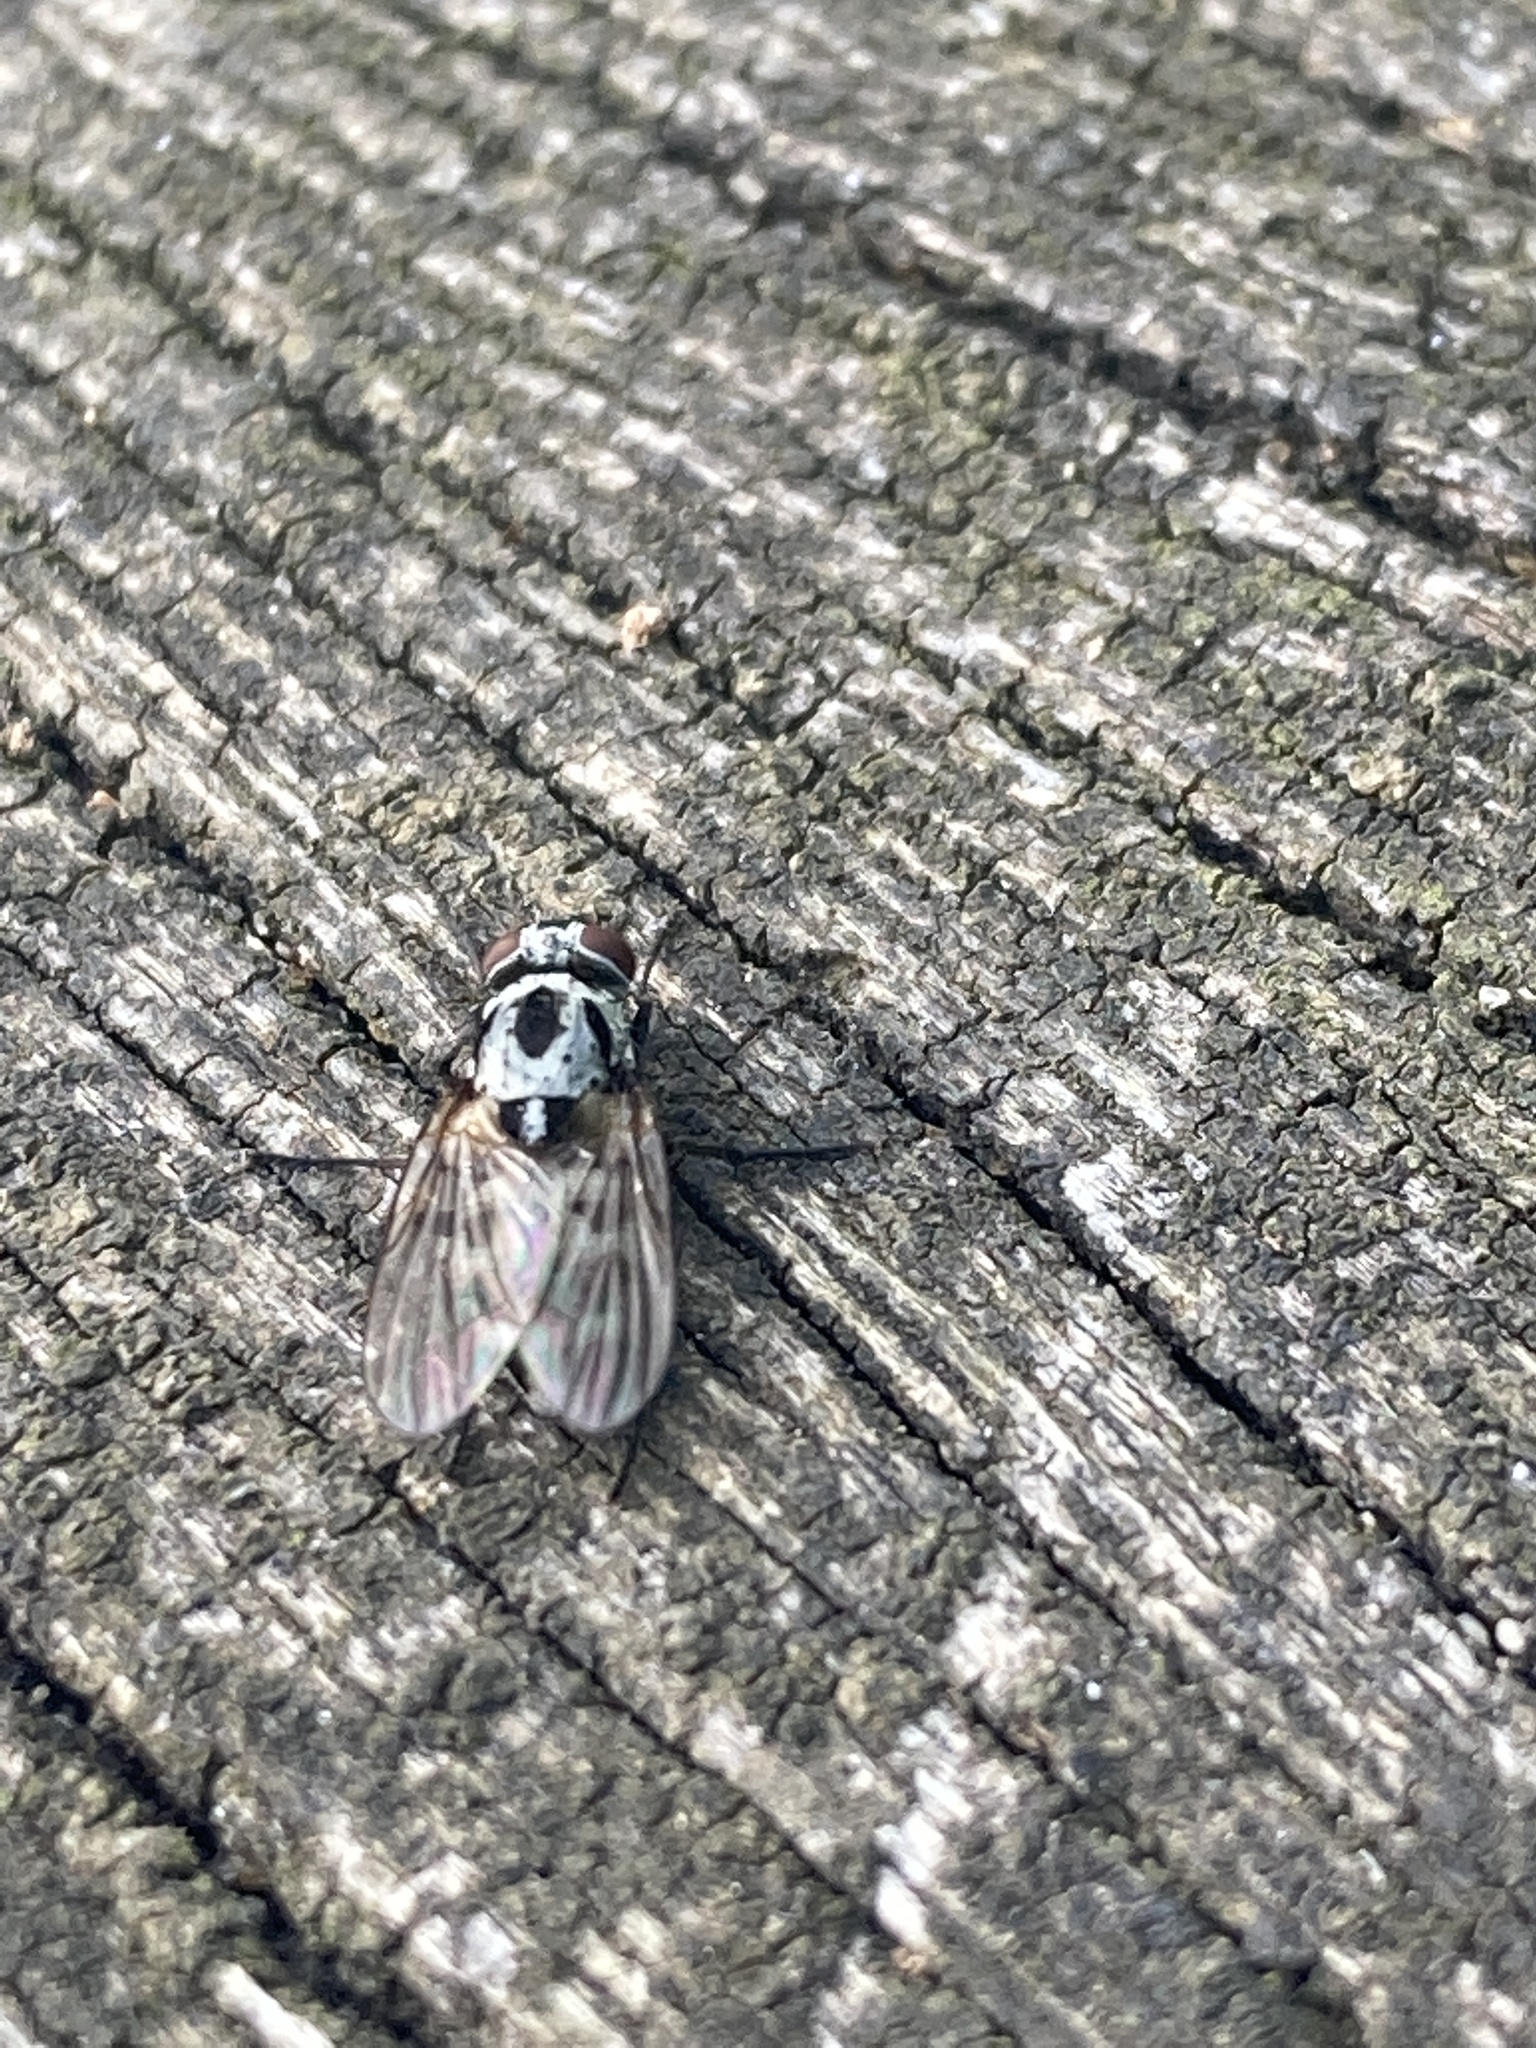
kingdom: Animalia
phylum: Arthropoda
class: Insecta
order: Diptera
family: Anthomyiidae
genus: Anthomyia
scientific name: Anthomyia pluvialis
